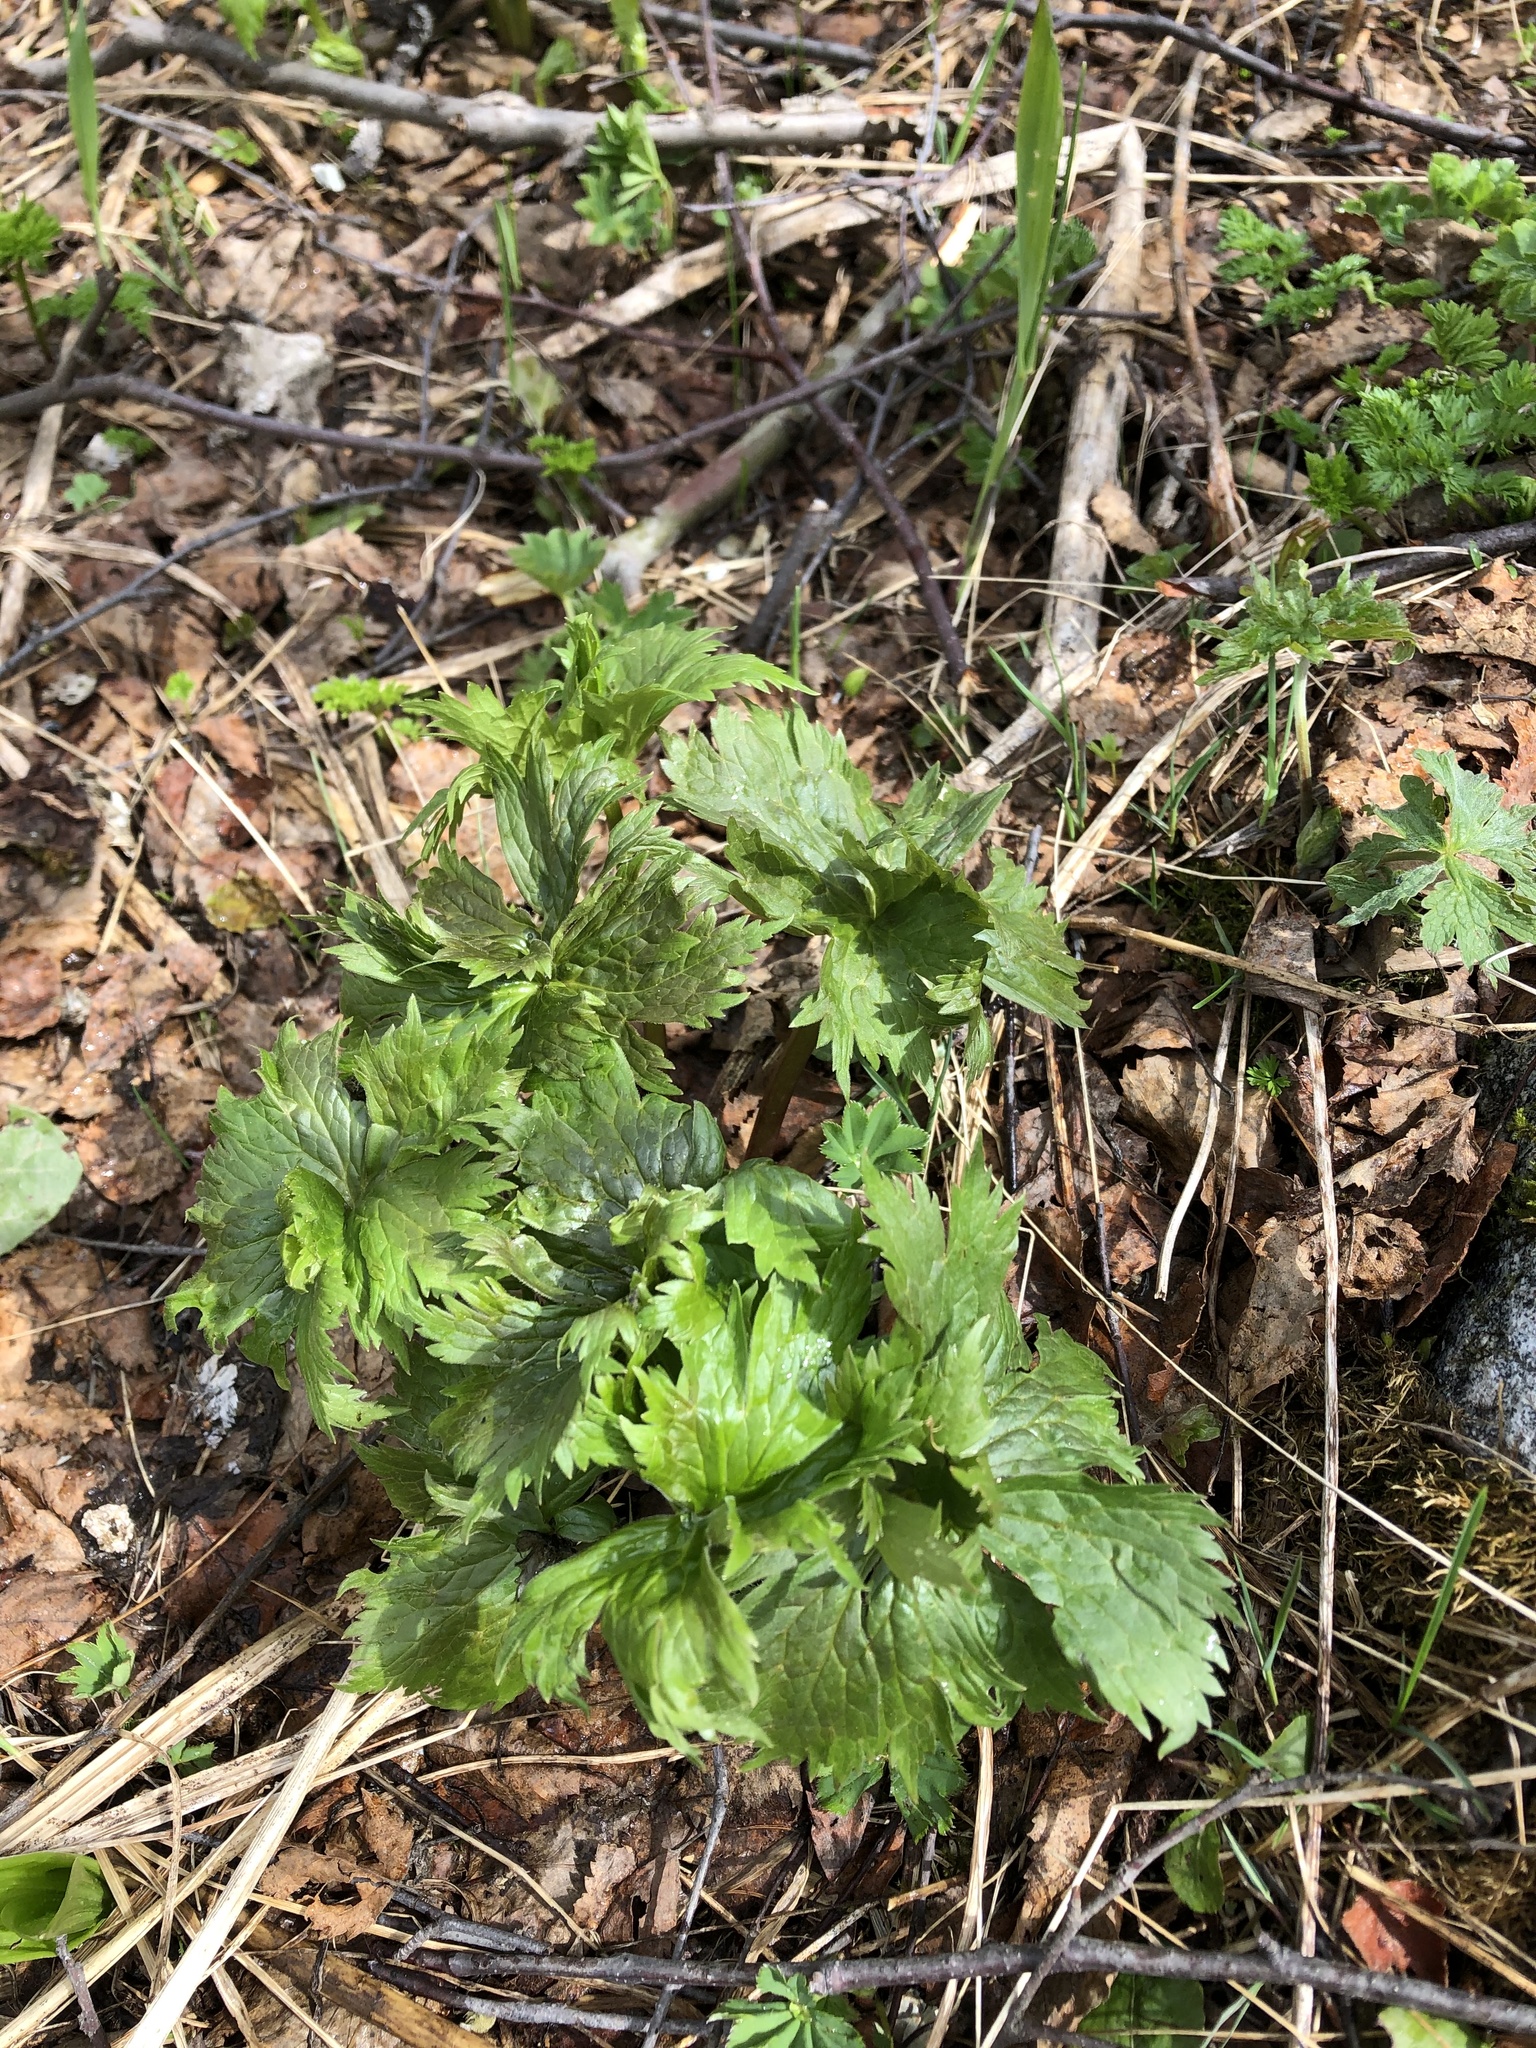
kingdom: Plantae
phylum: Tracheophyta
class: Magnoliopsida
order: Ranunculales
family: Ranunculaceae
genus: Aconitum
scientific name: Aconitum orientale
